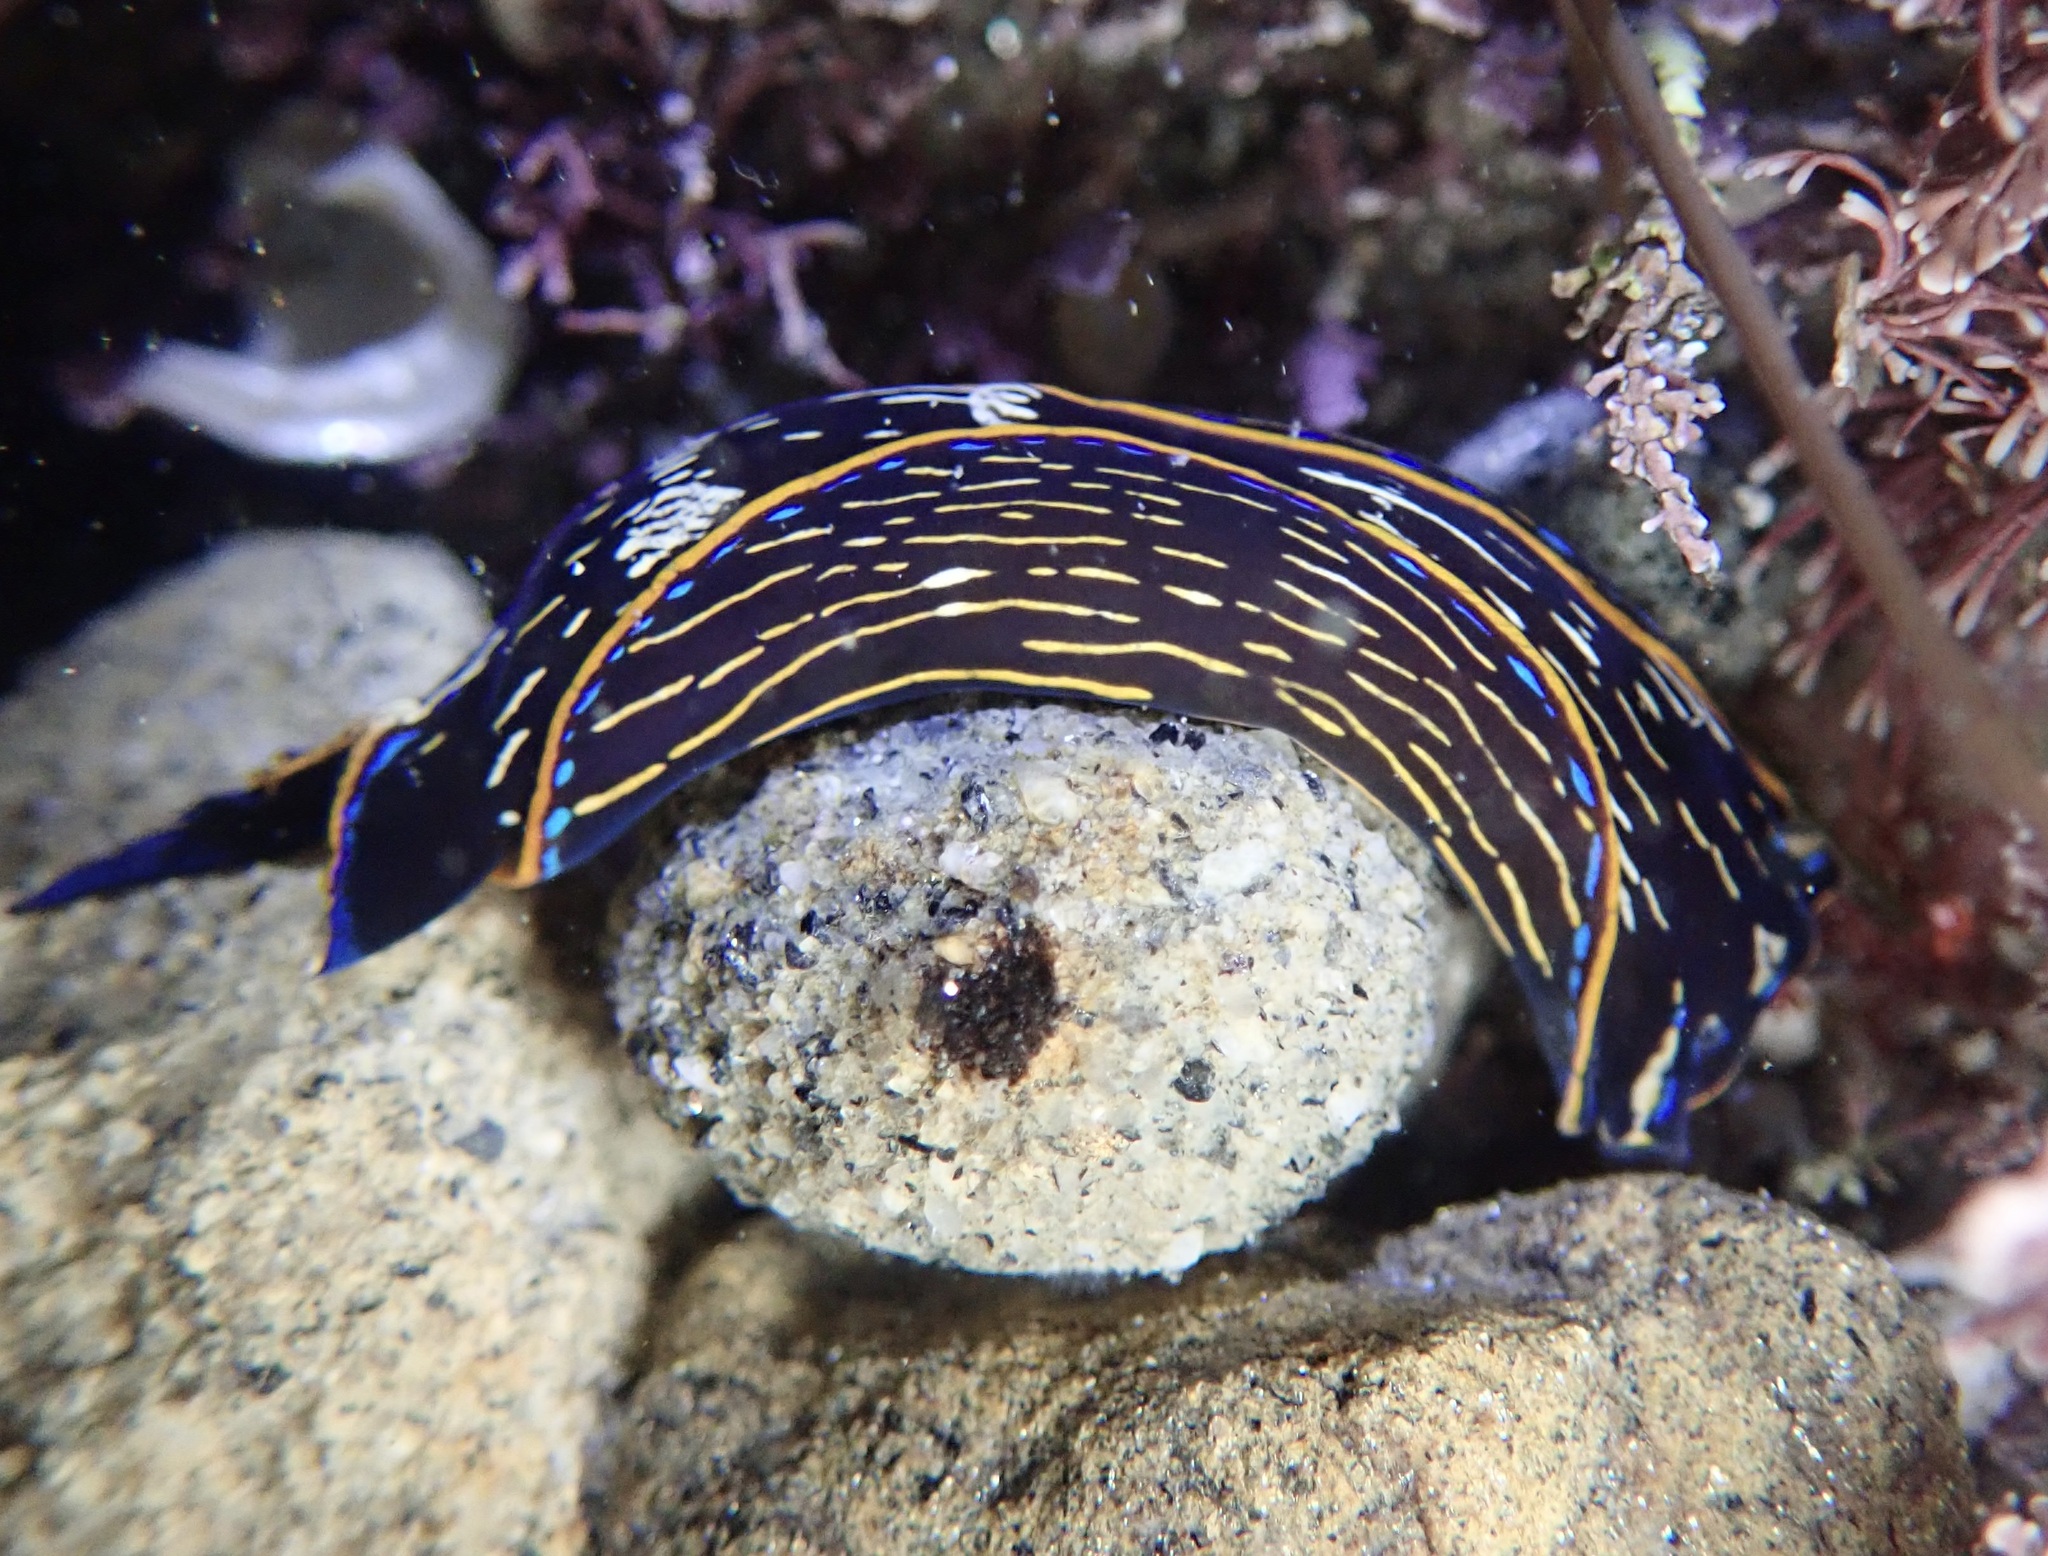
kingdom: Animalia
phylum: Mollusca
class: Gastropoda
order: Cephalaspidea
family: Aglajidae
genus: Navanax
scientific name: Navanax inermis
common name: California aglaja
